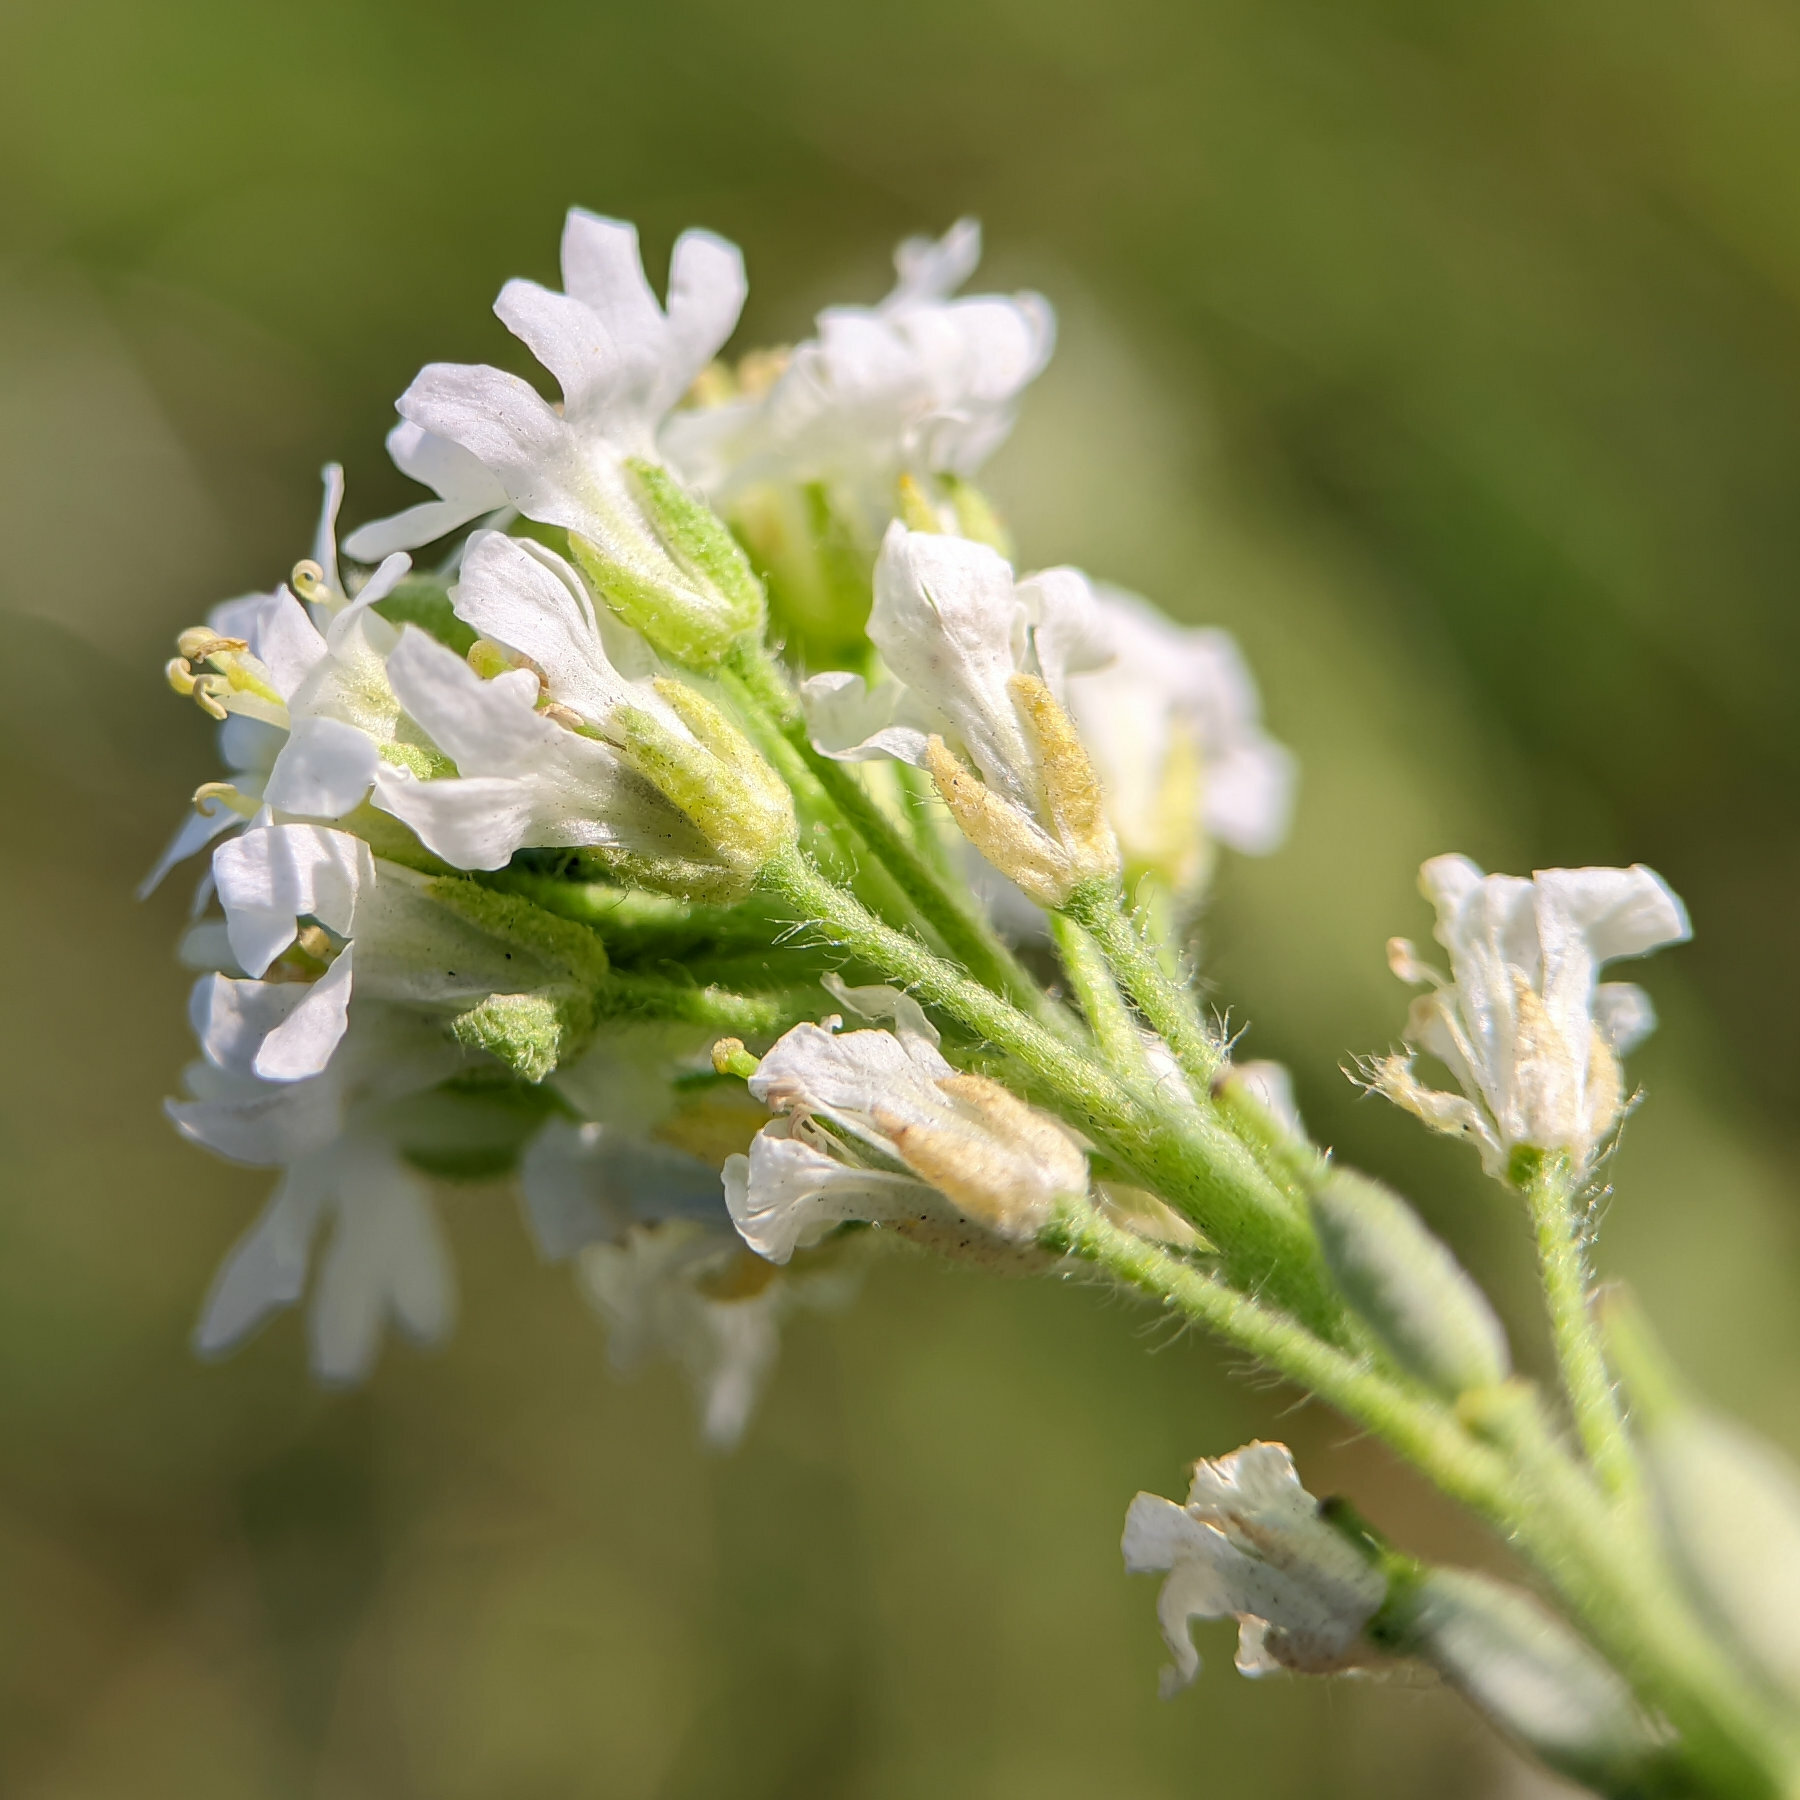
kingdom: Plantae
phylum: Tracheophyta
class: Magnoliopsida
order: Brassicales
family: Brassicaceae
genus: Berteroa
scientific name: Berteroa incana
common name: Hoary alison
